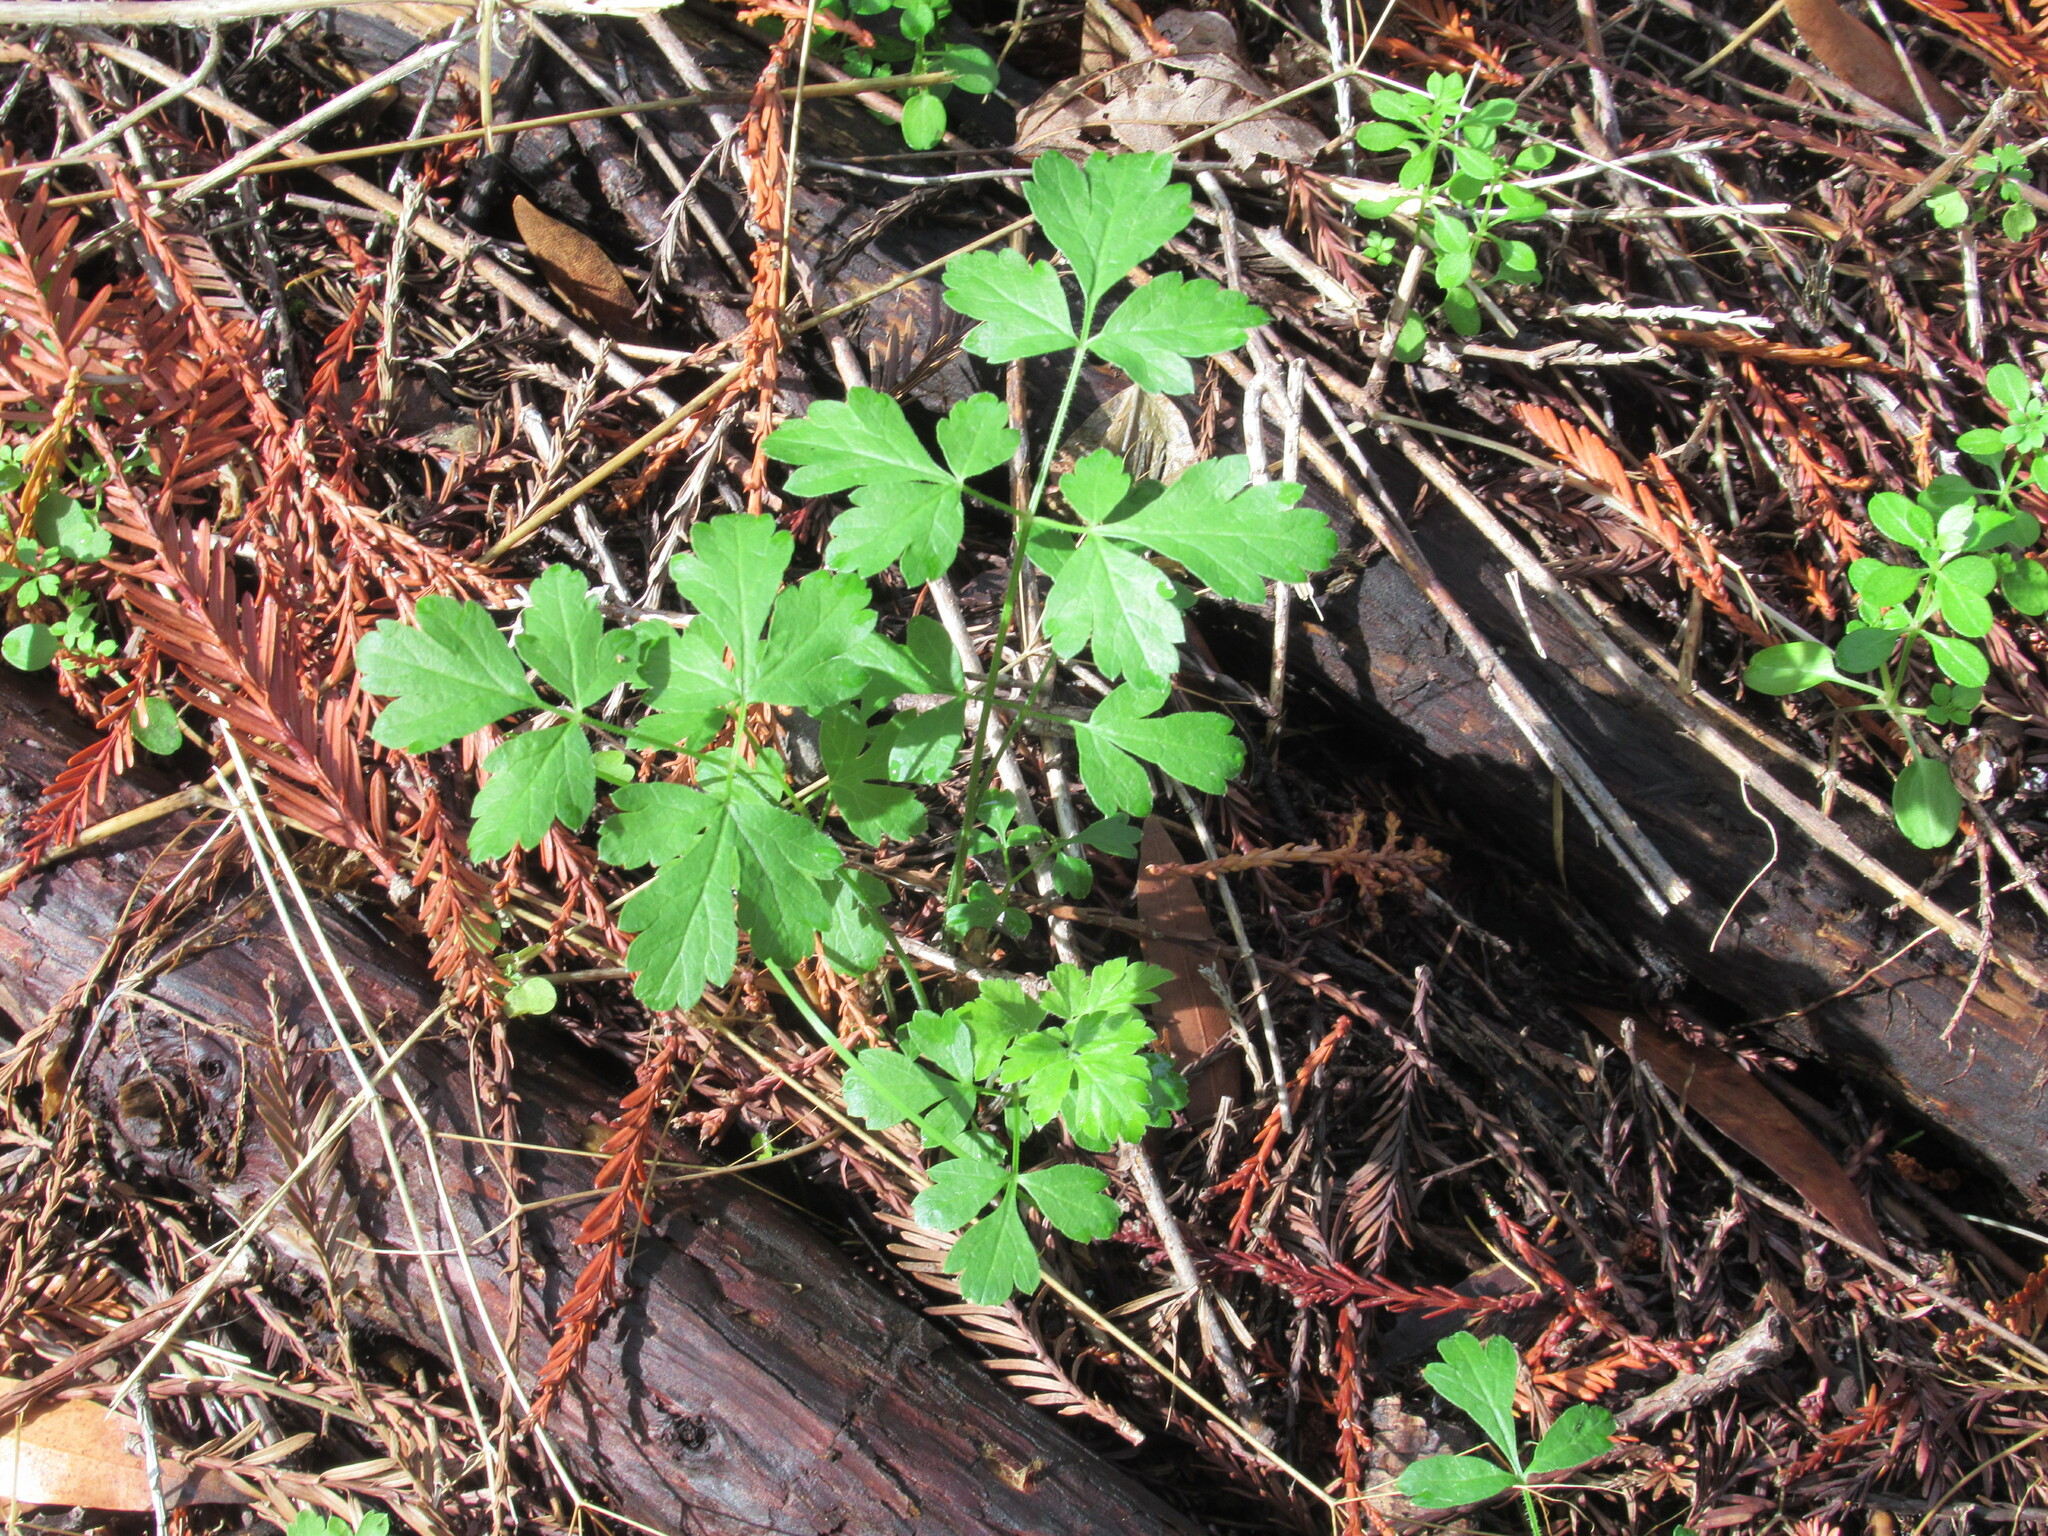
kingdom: Plantae
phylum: Tracheophyta
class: Magnoliopsida
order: Apiales
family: Apiaceae
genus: Osmorhiza
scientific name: Osmorhiza berteroi
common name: Mountain sweet cicely
